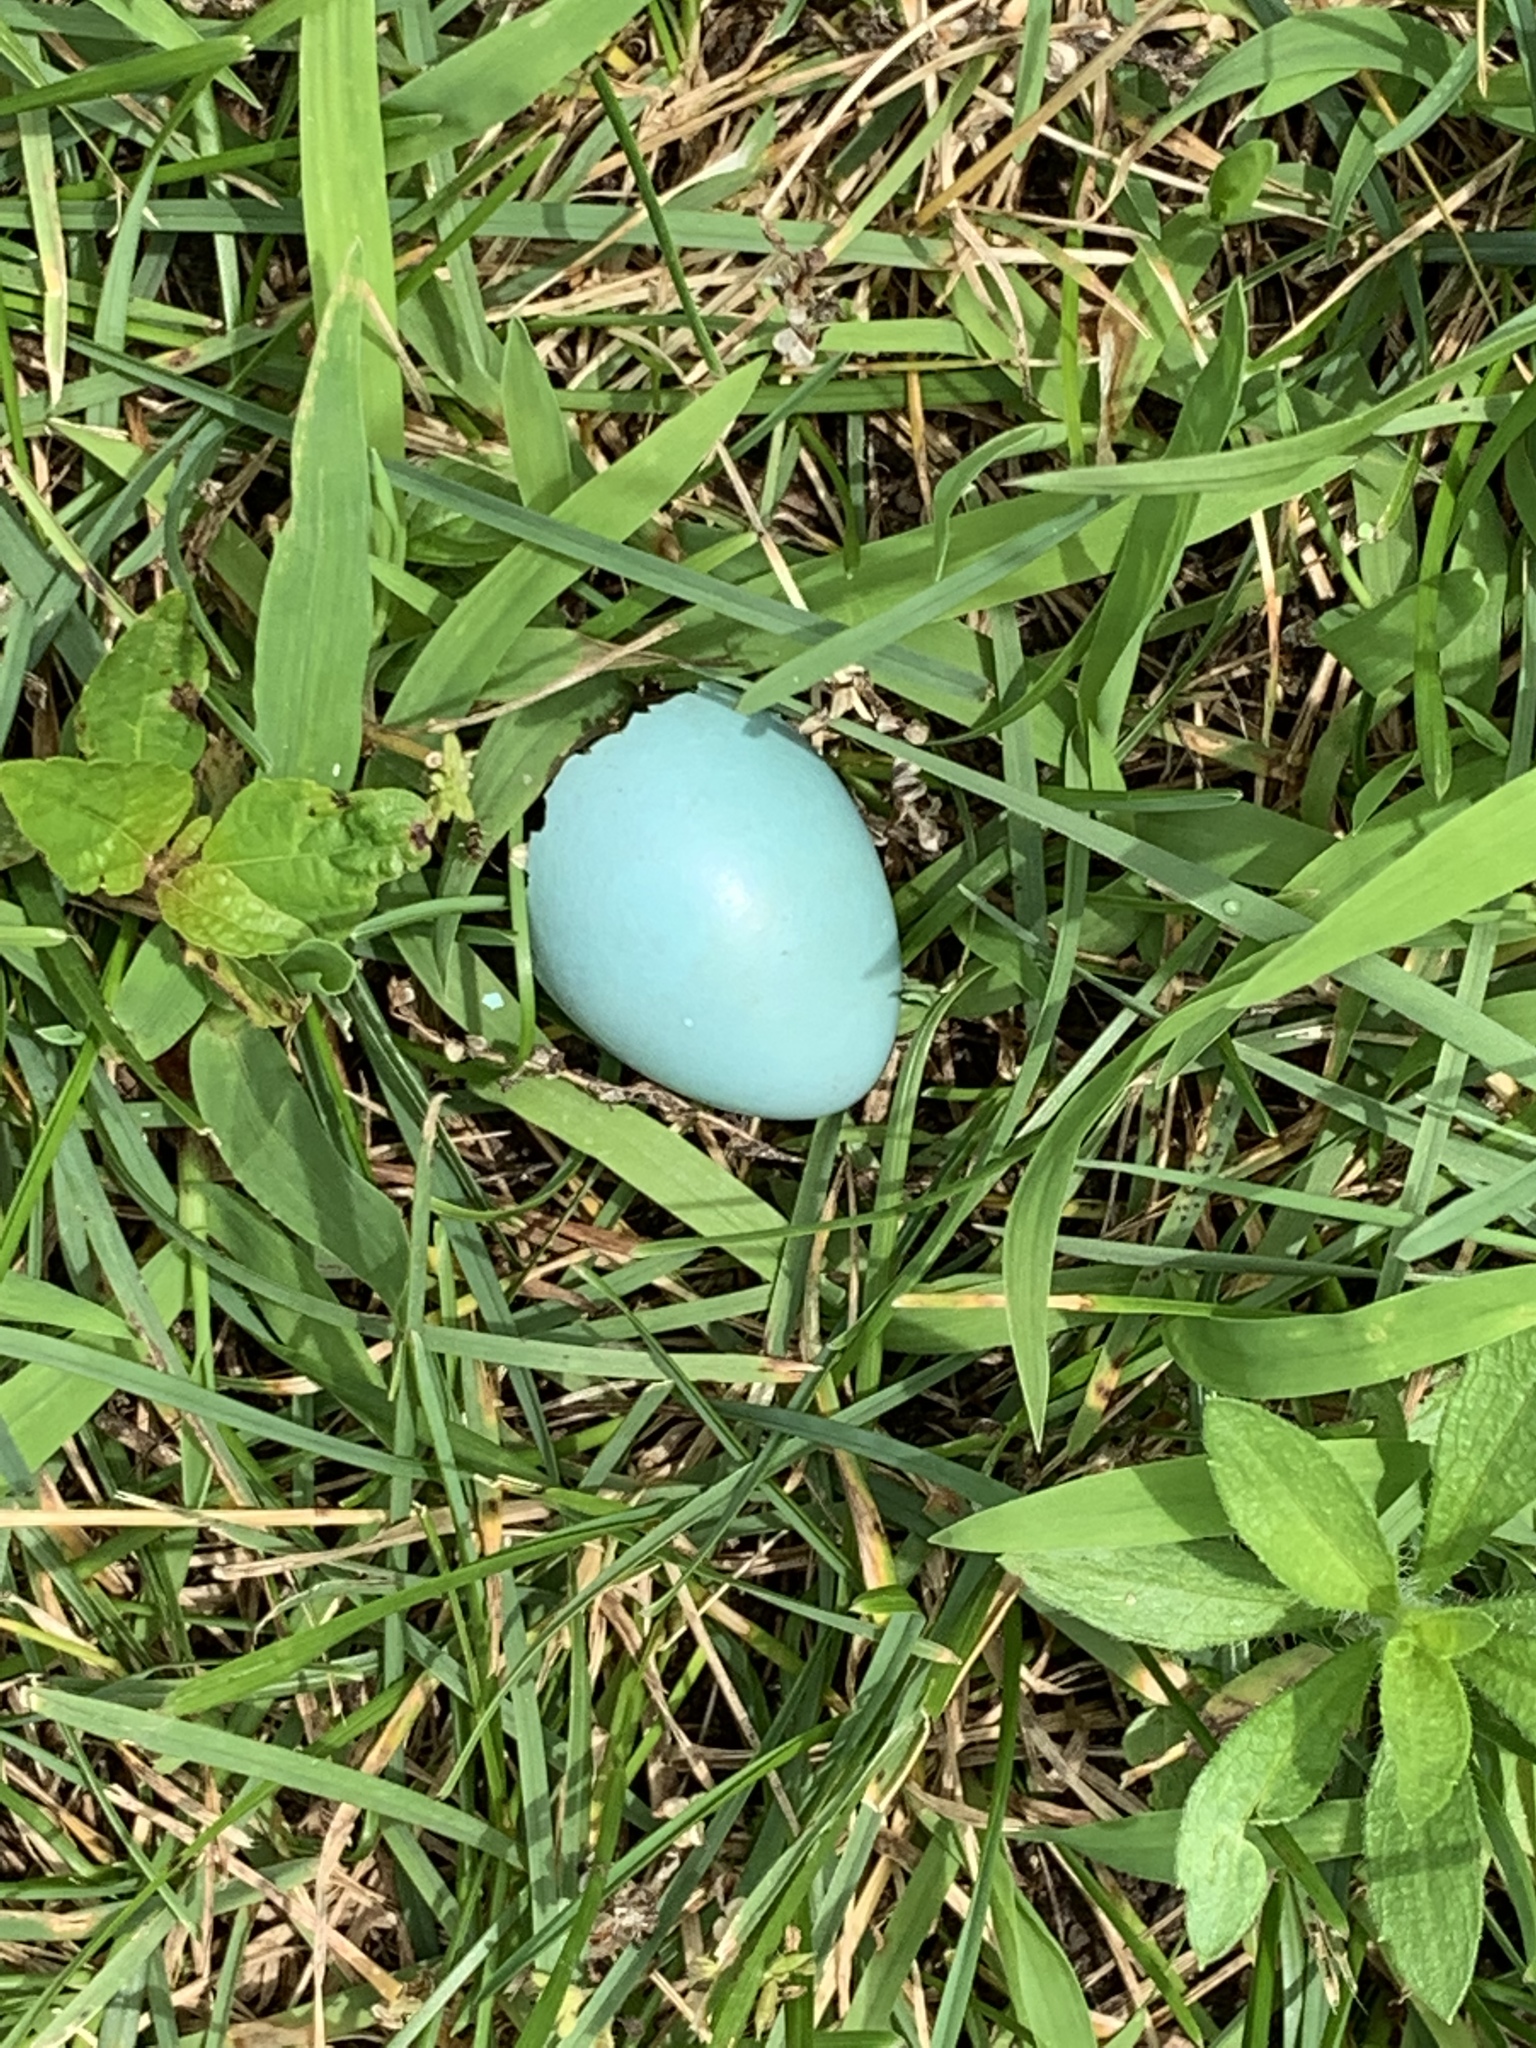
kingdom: Animalia
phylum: Chordata
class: Aves
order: Passeriformes
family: Turdidae
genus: Turdus
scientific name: Turdus migratorius
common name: American robin
